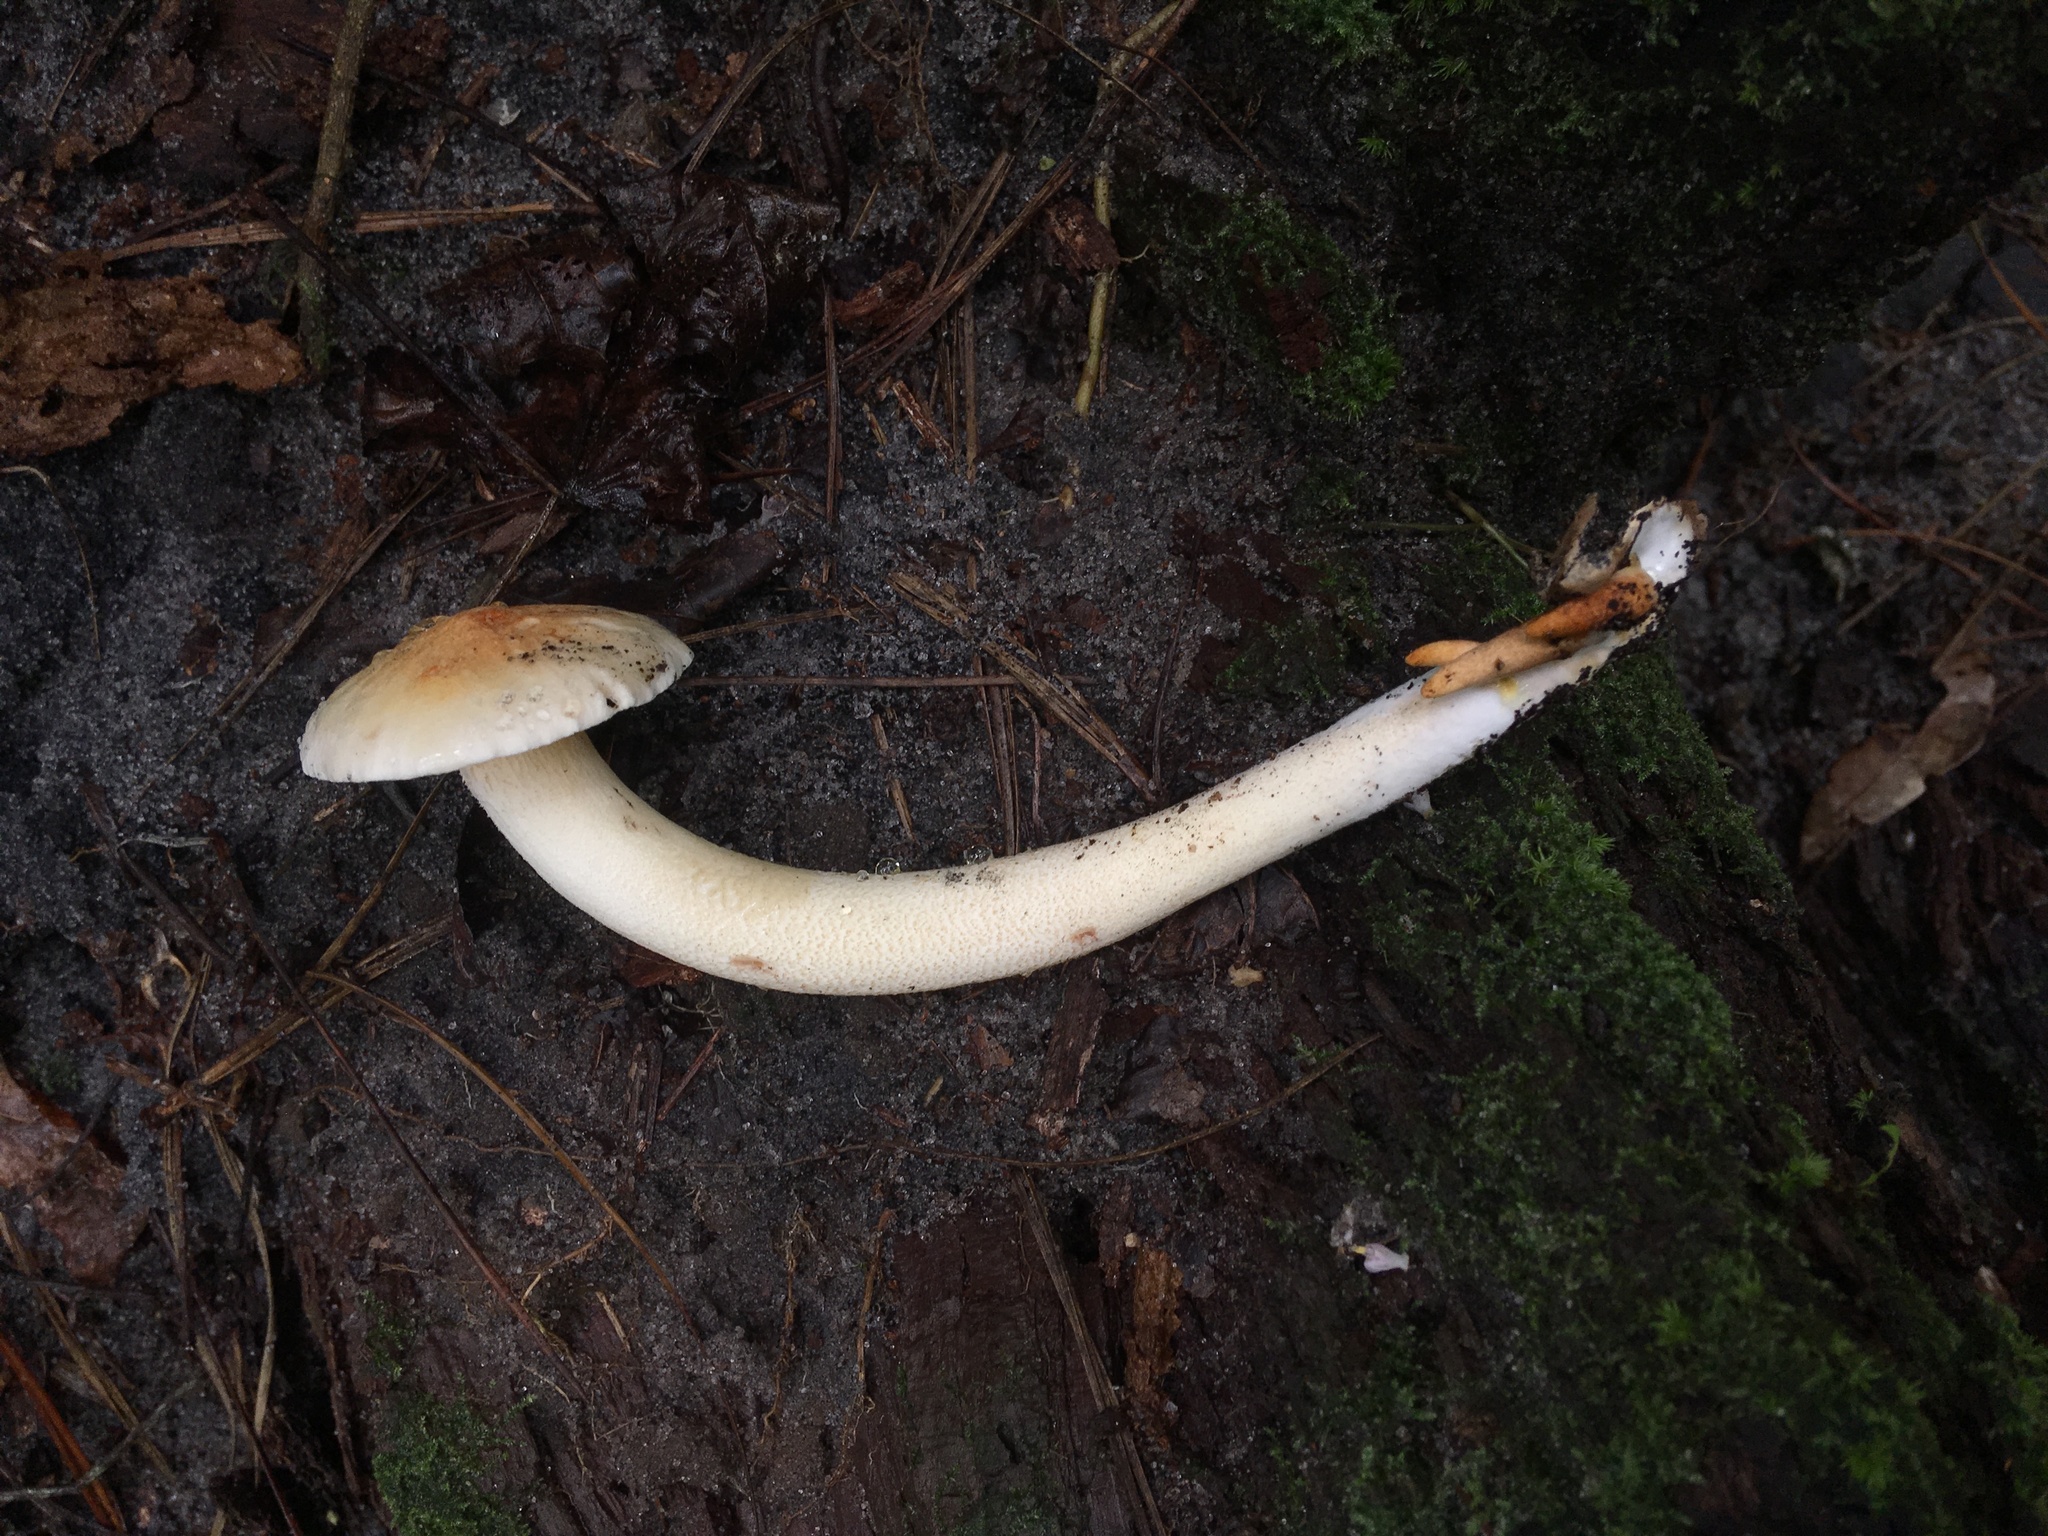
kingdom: Fungi
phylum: Basidiomycota
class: Agaricomycetes
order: Gloeophyllales
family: Gloeophyllaceae
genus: Neolentinus
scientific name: Neolentinus lepideus
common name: Scaly sawgill
